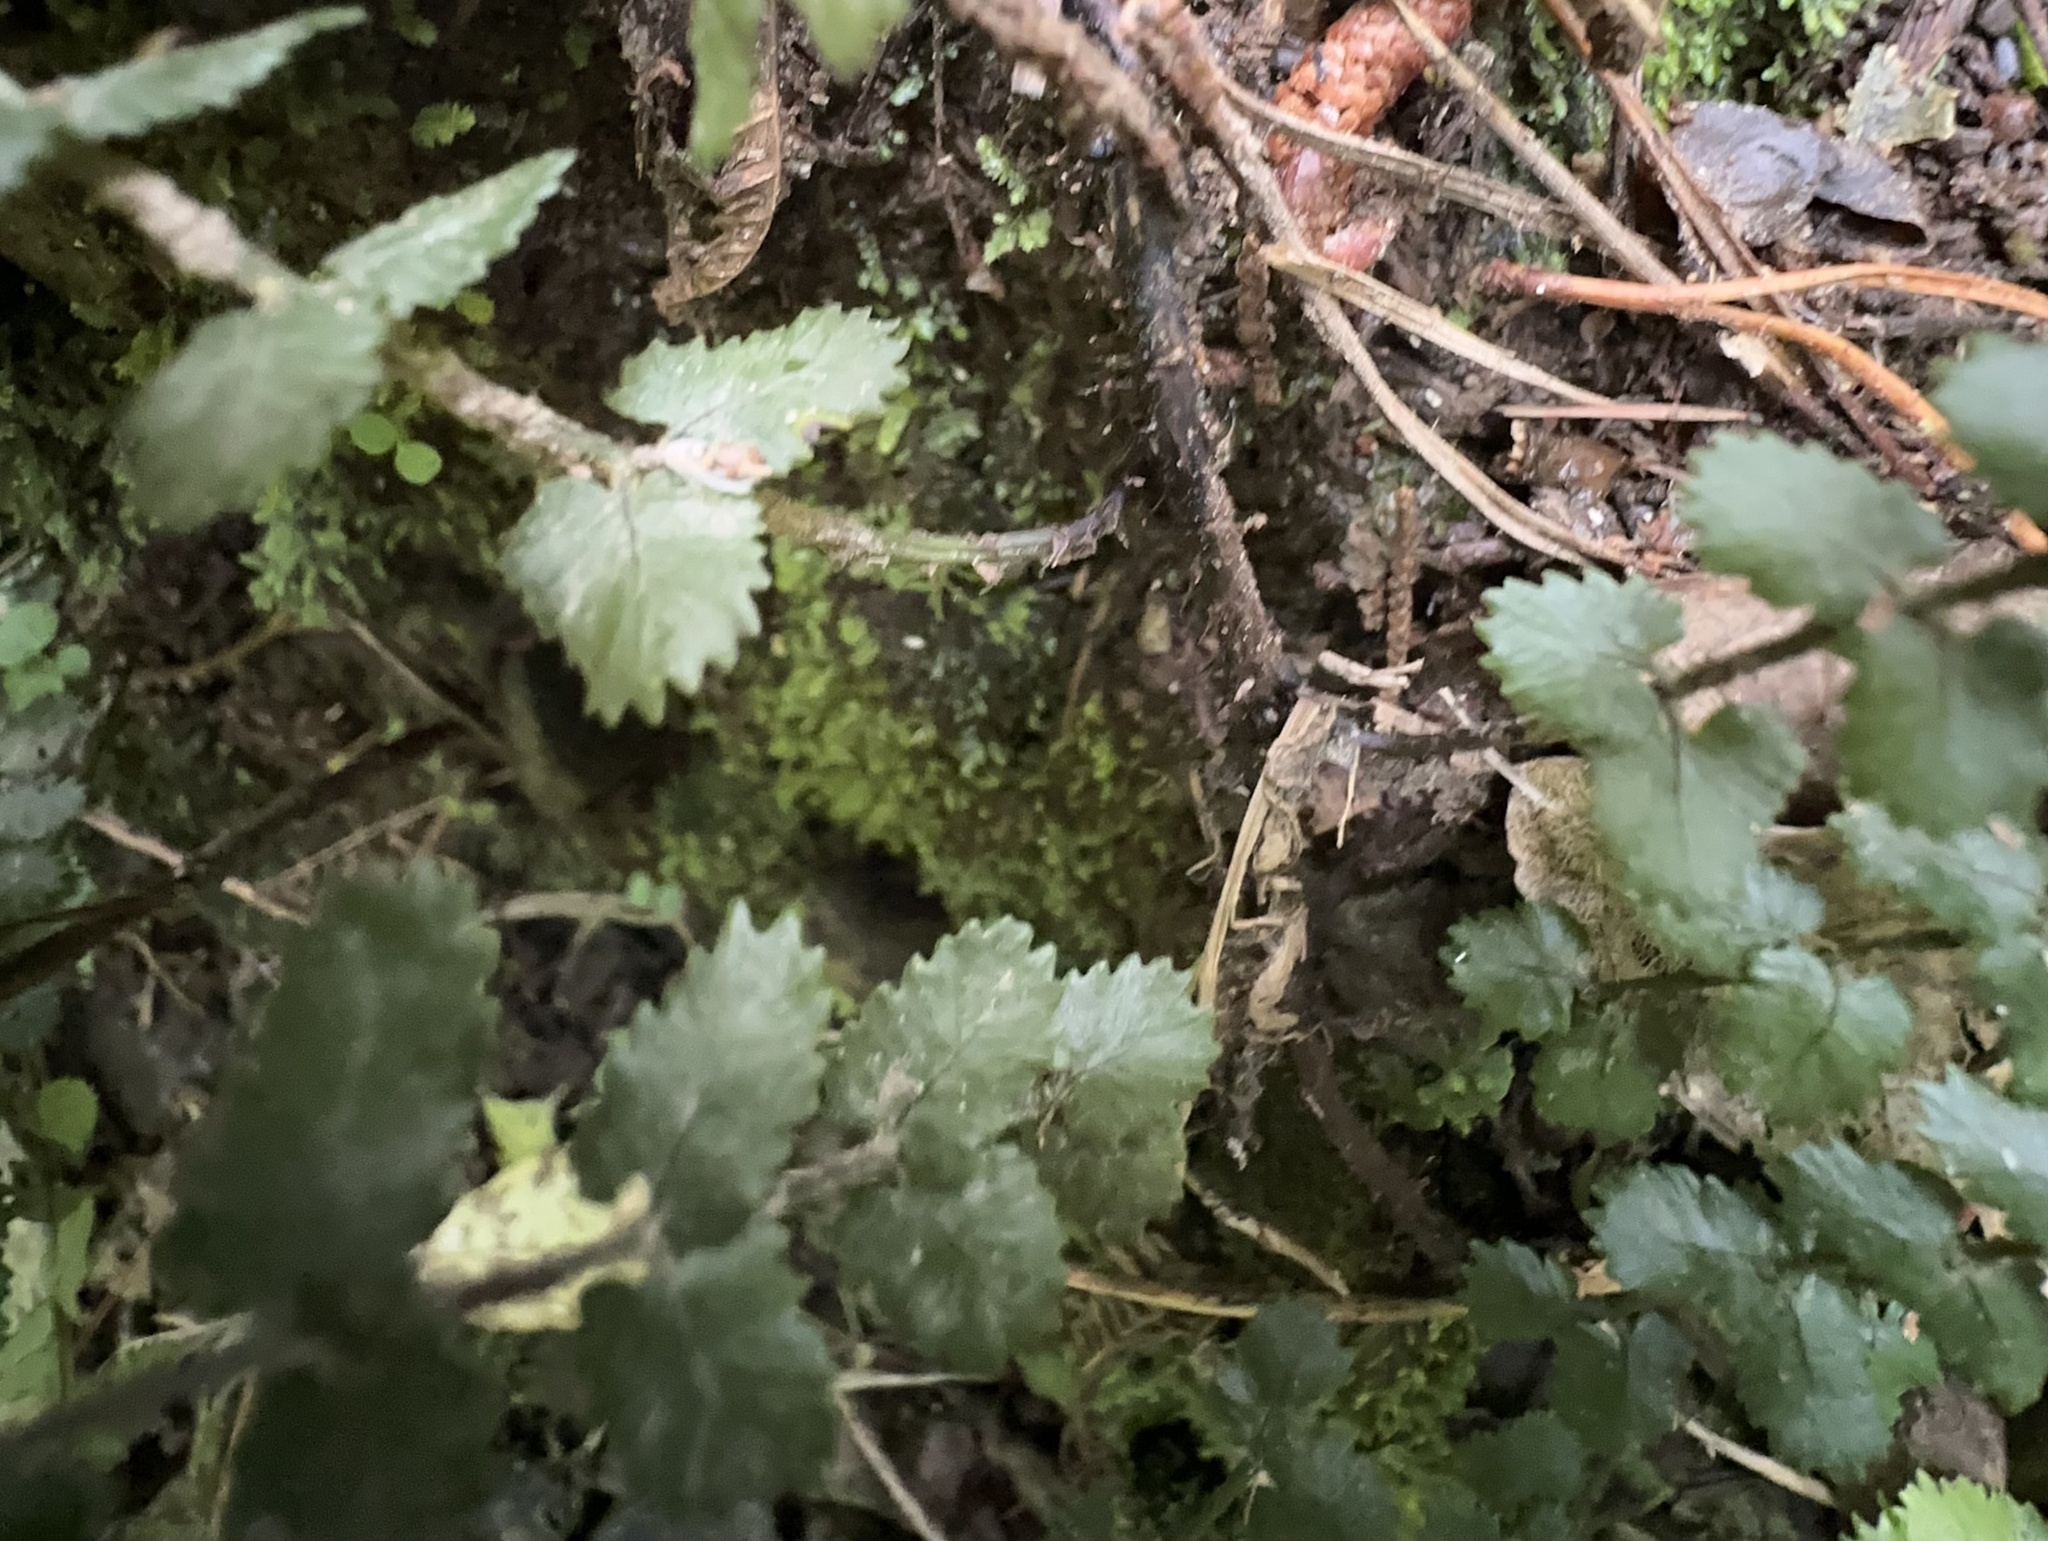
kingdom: Plantae
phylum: Tracheophyta
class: Polypodiopsida
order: Polypodiales
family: Blechnaceae
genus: Icarus
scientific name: Icarus filiformis
